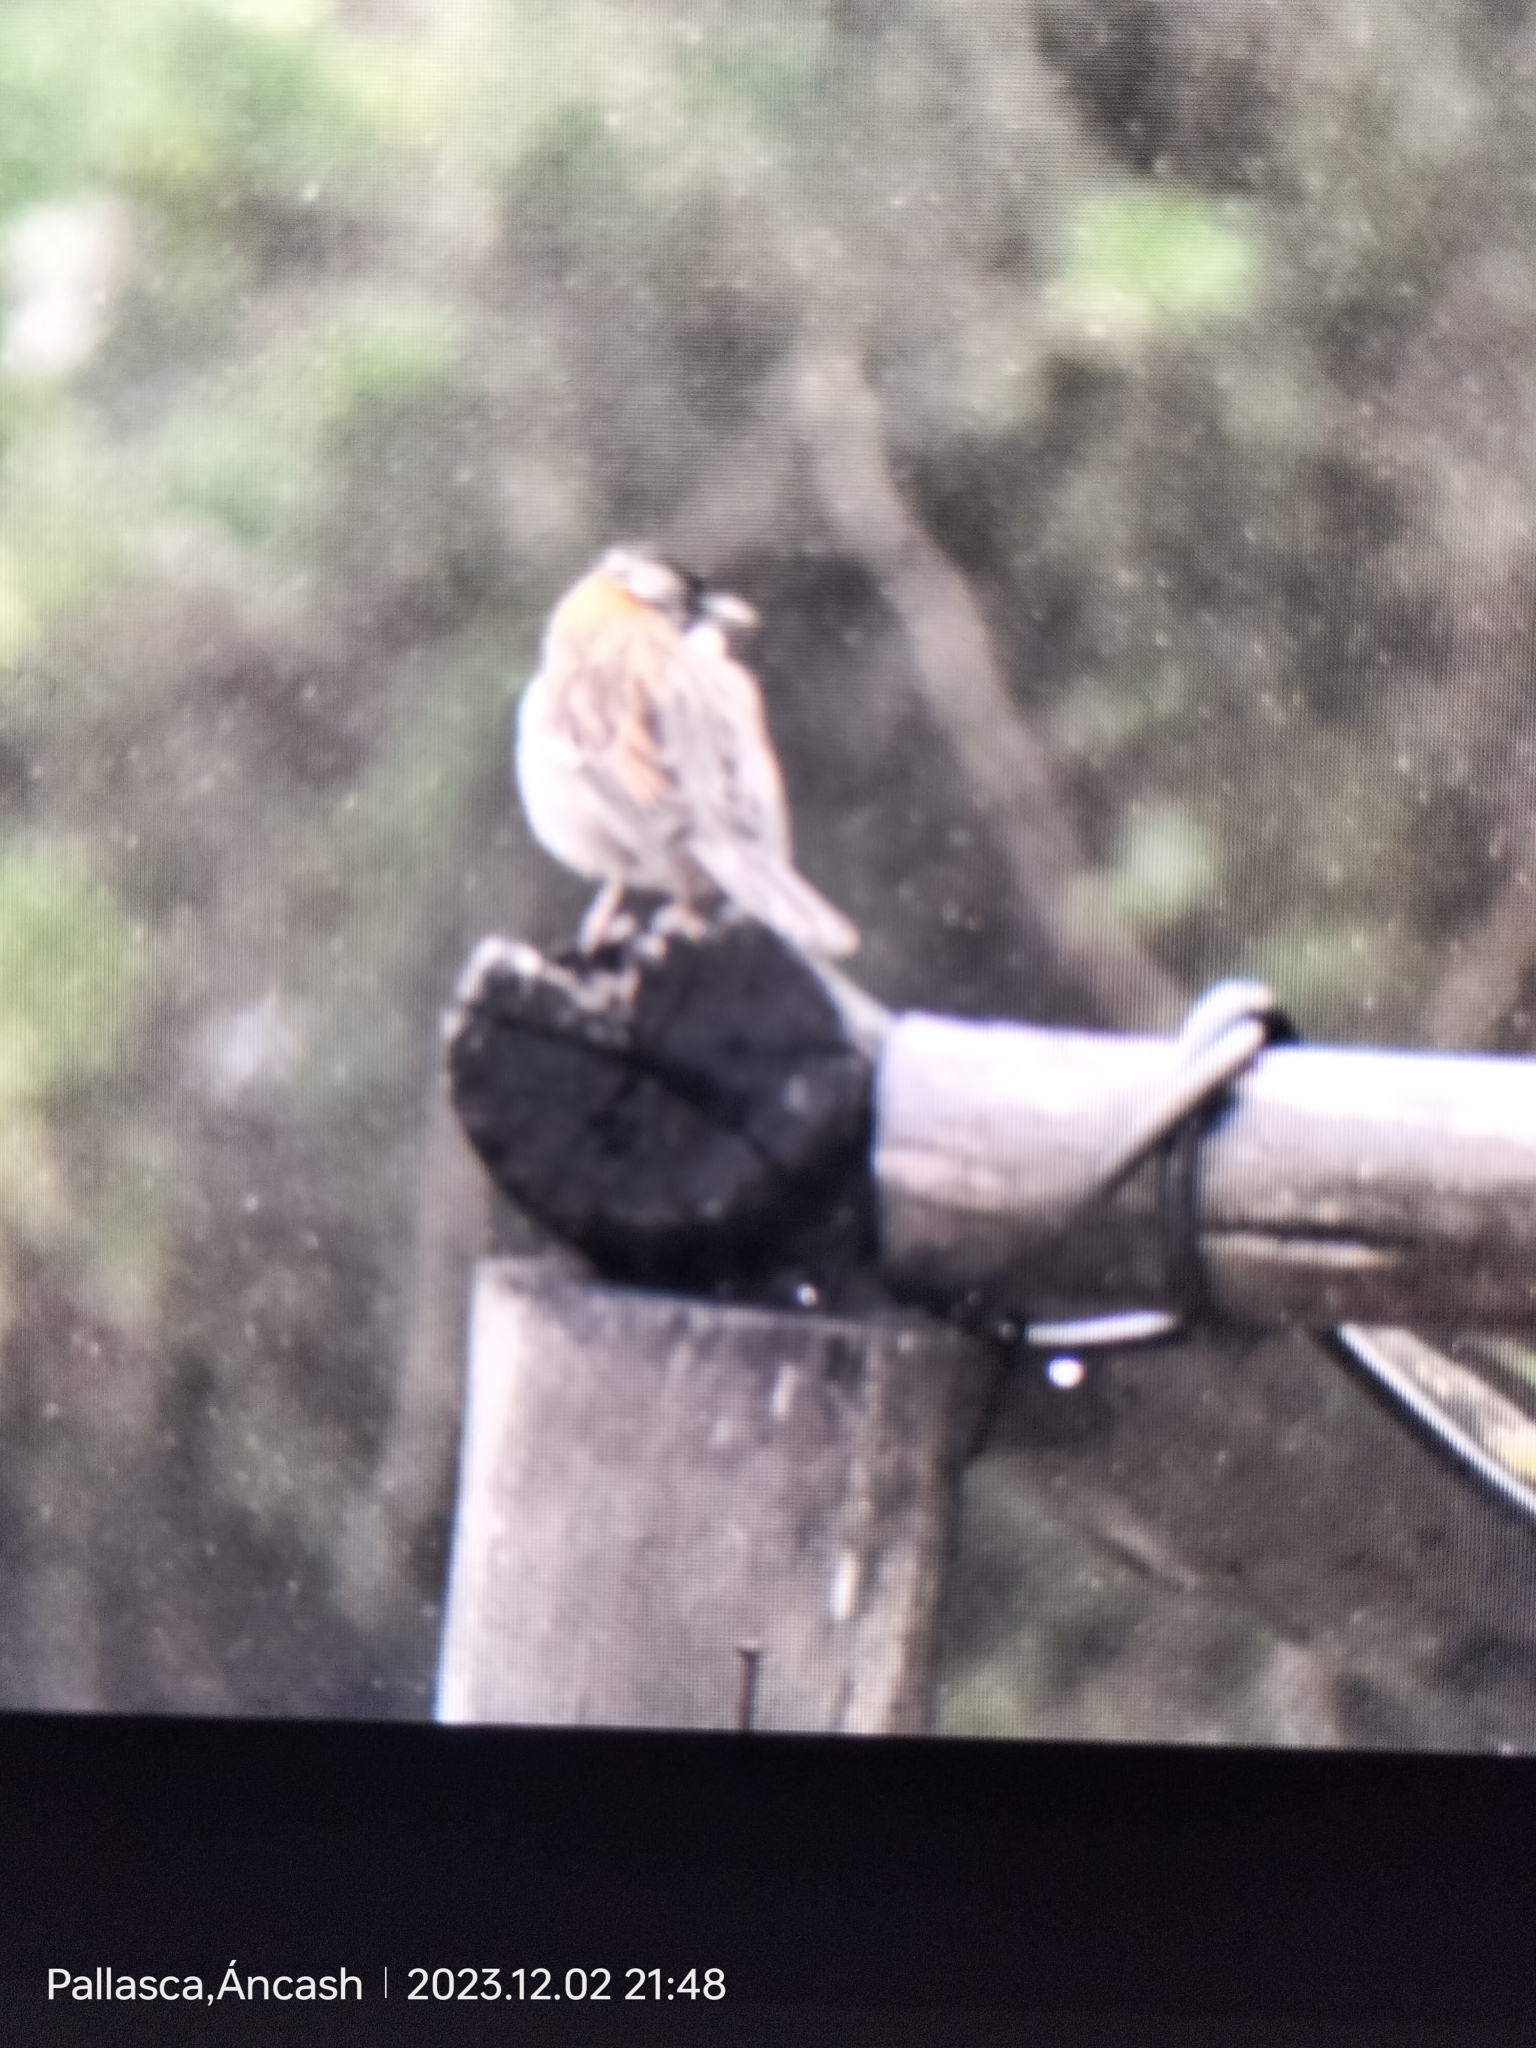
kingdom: Animalia
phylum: Chordata
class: Aves
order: Passeriformes
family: Passerellidae
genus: Zonotrichia
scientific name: Zonotrichia capensis
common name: Rufous-collared sparrow
